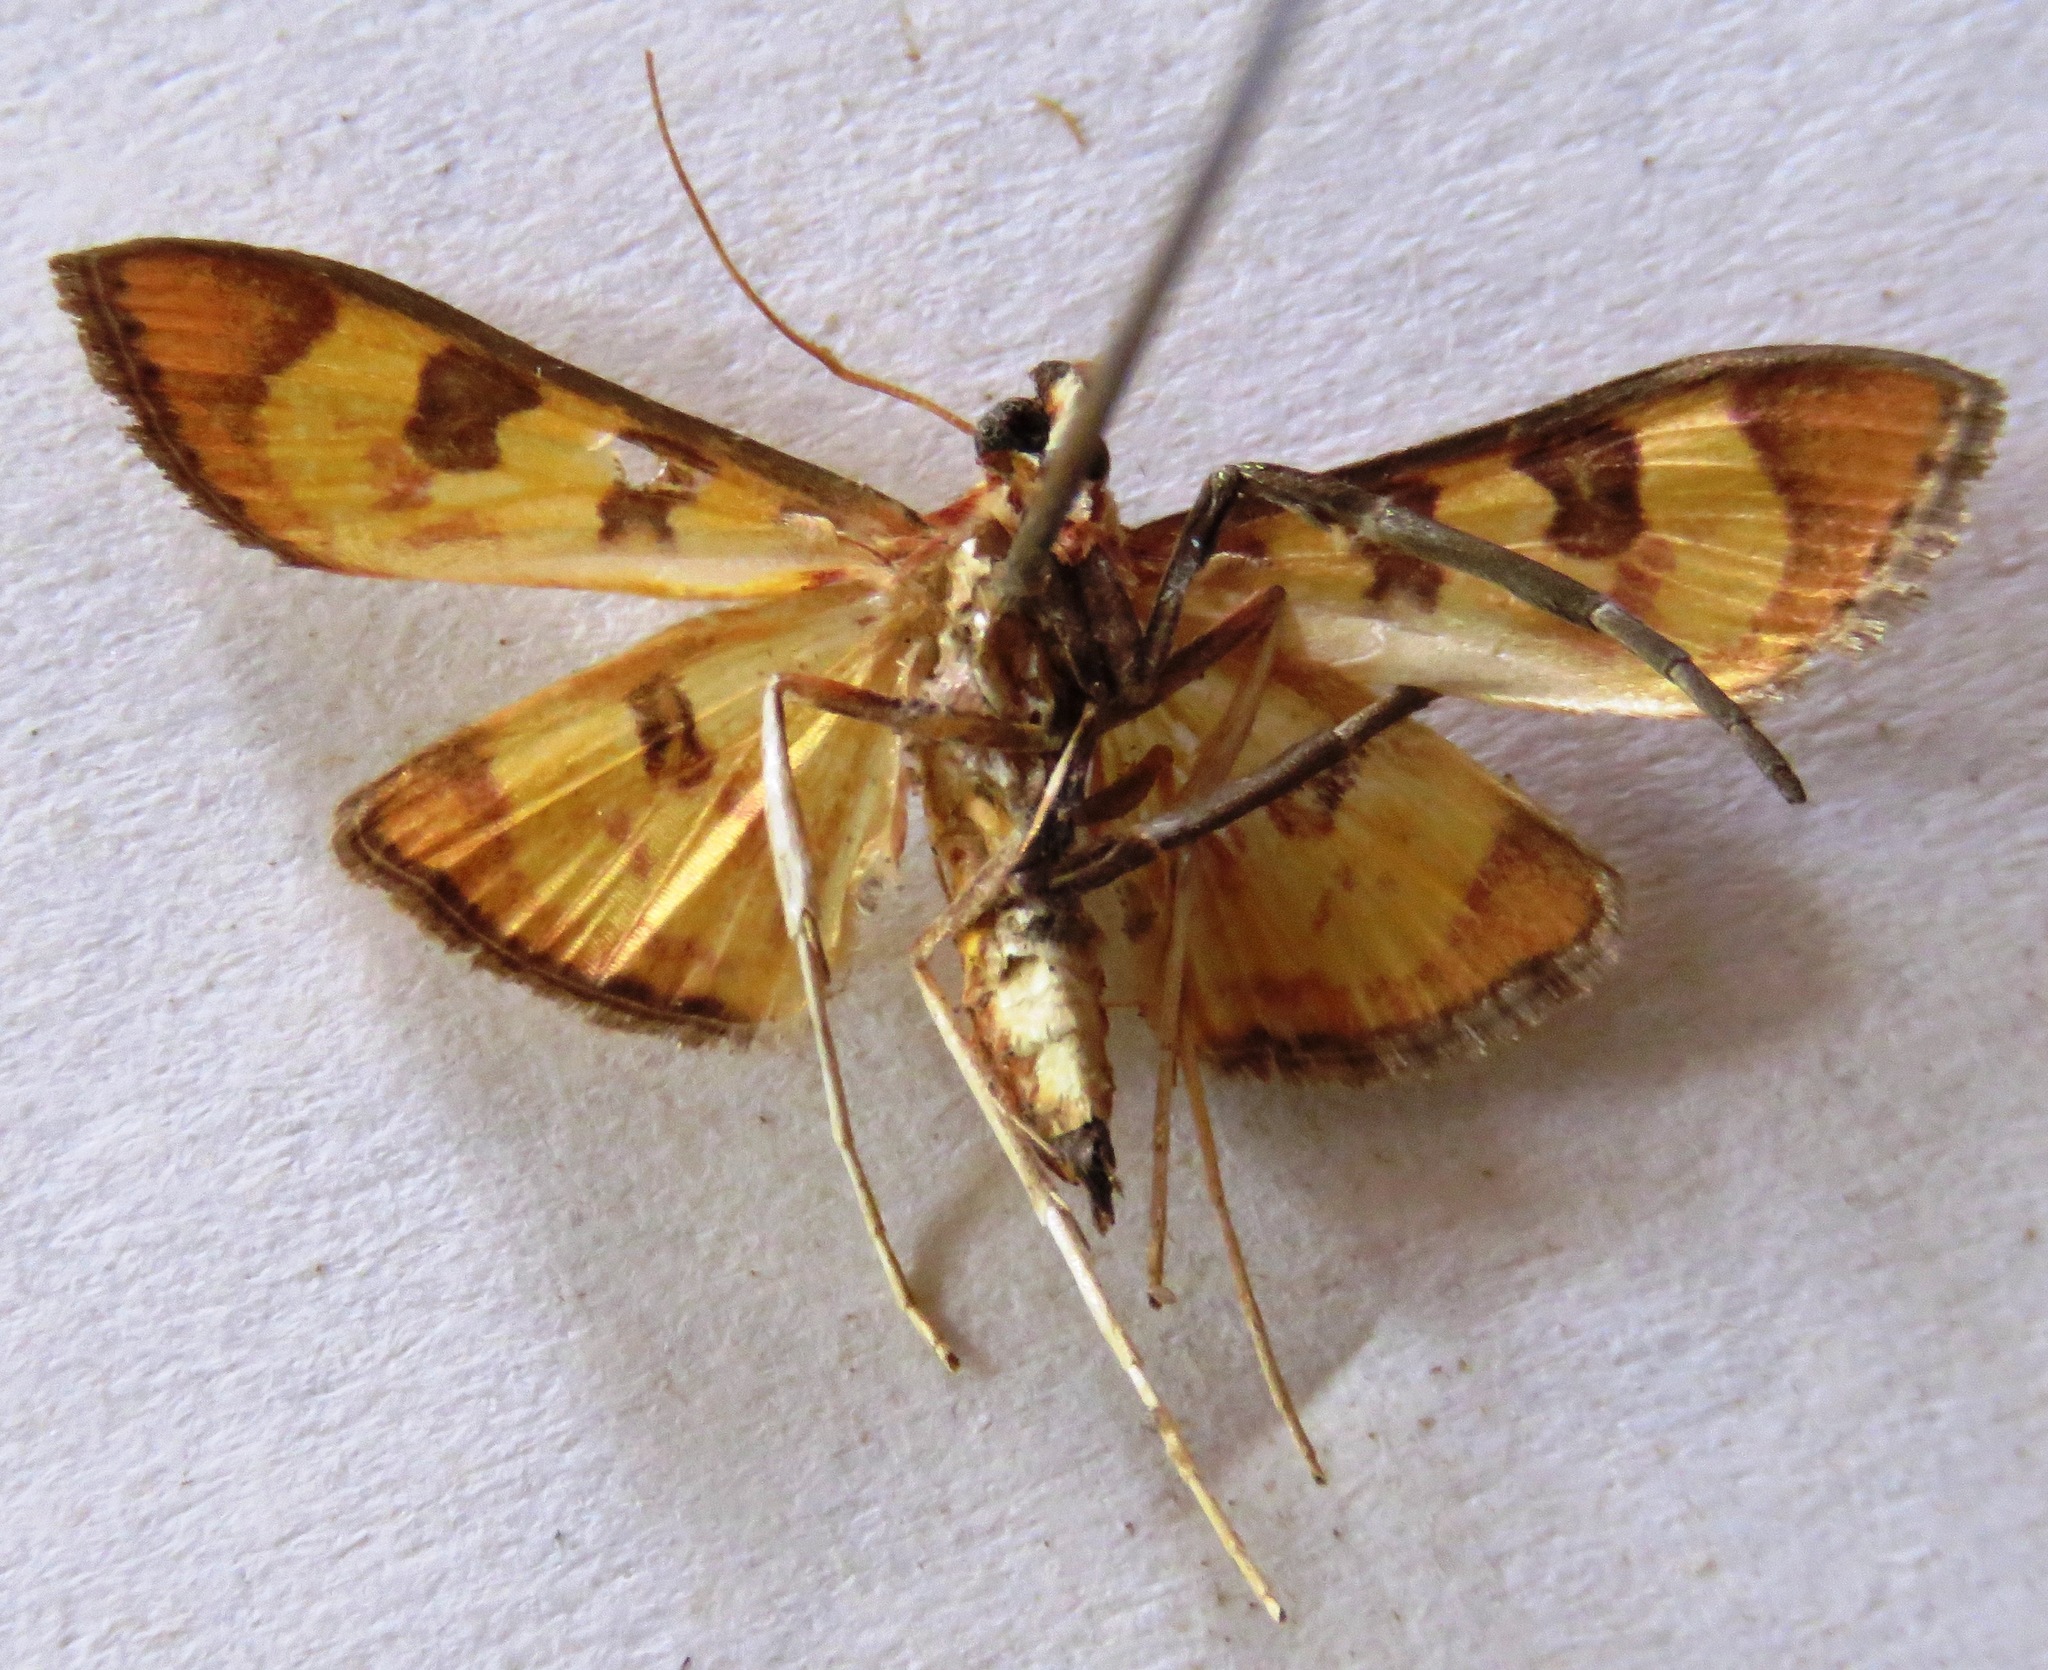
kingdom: Animalia
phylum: Arthropoda
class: Insecta
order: Lepidoptera
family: Crambidae
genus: Trithyris
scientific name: Trithyris
